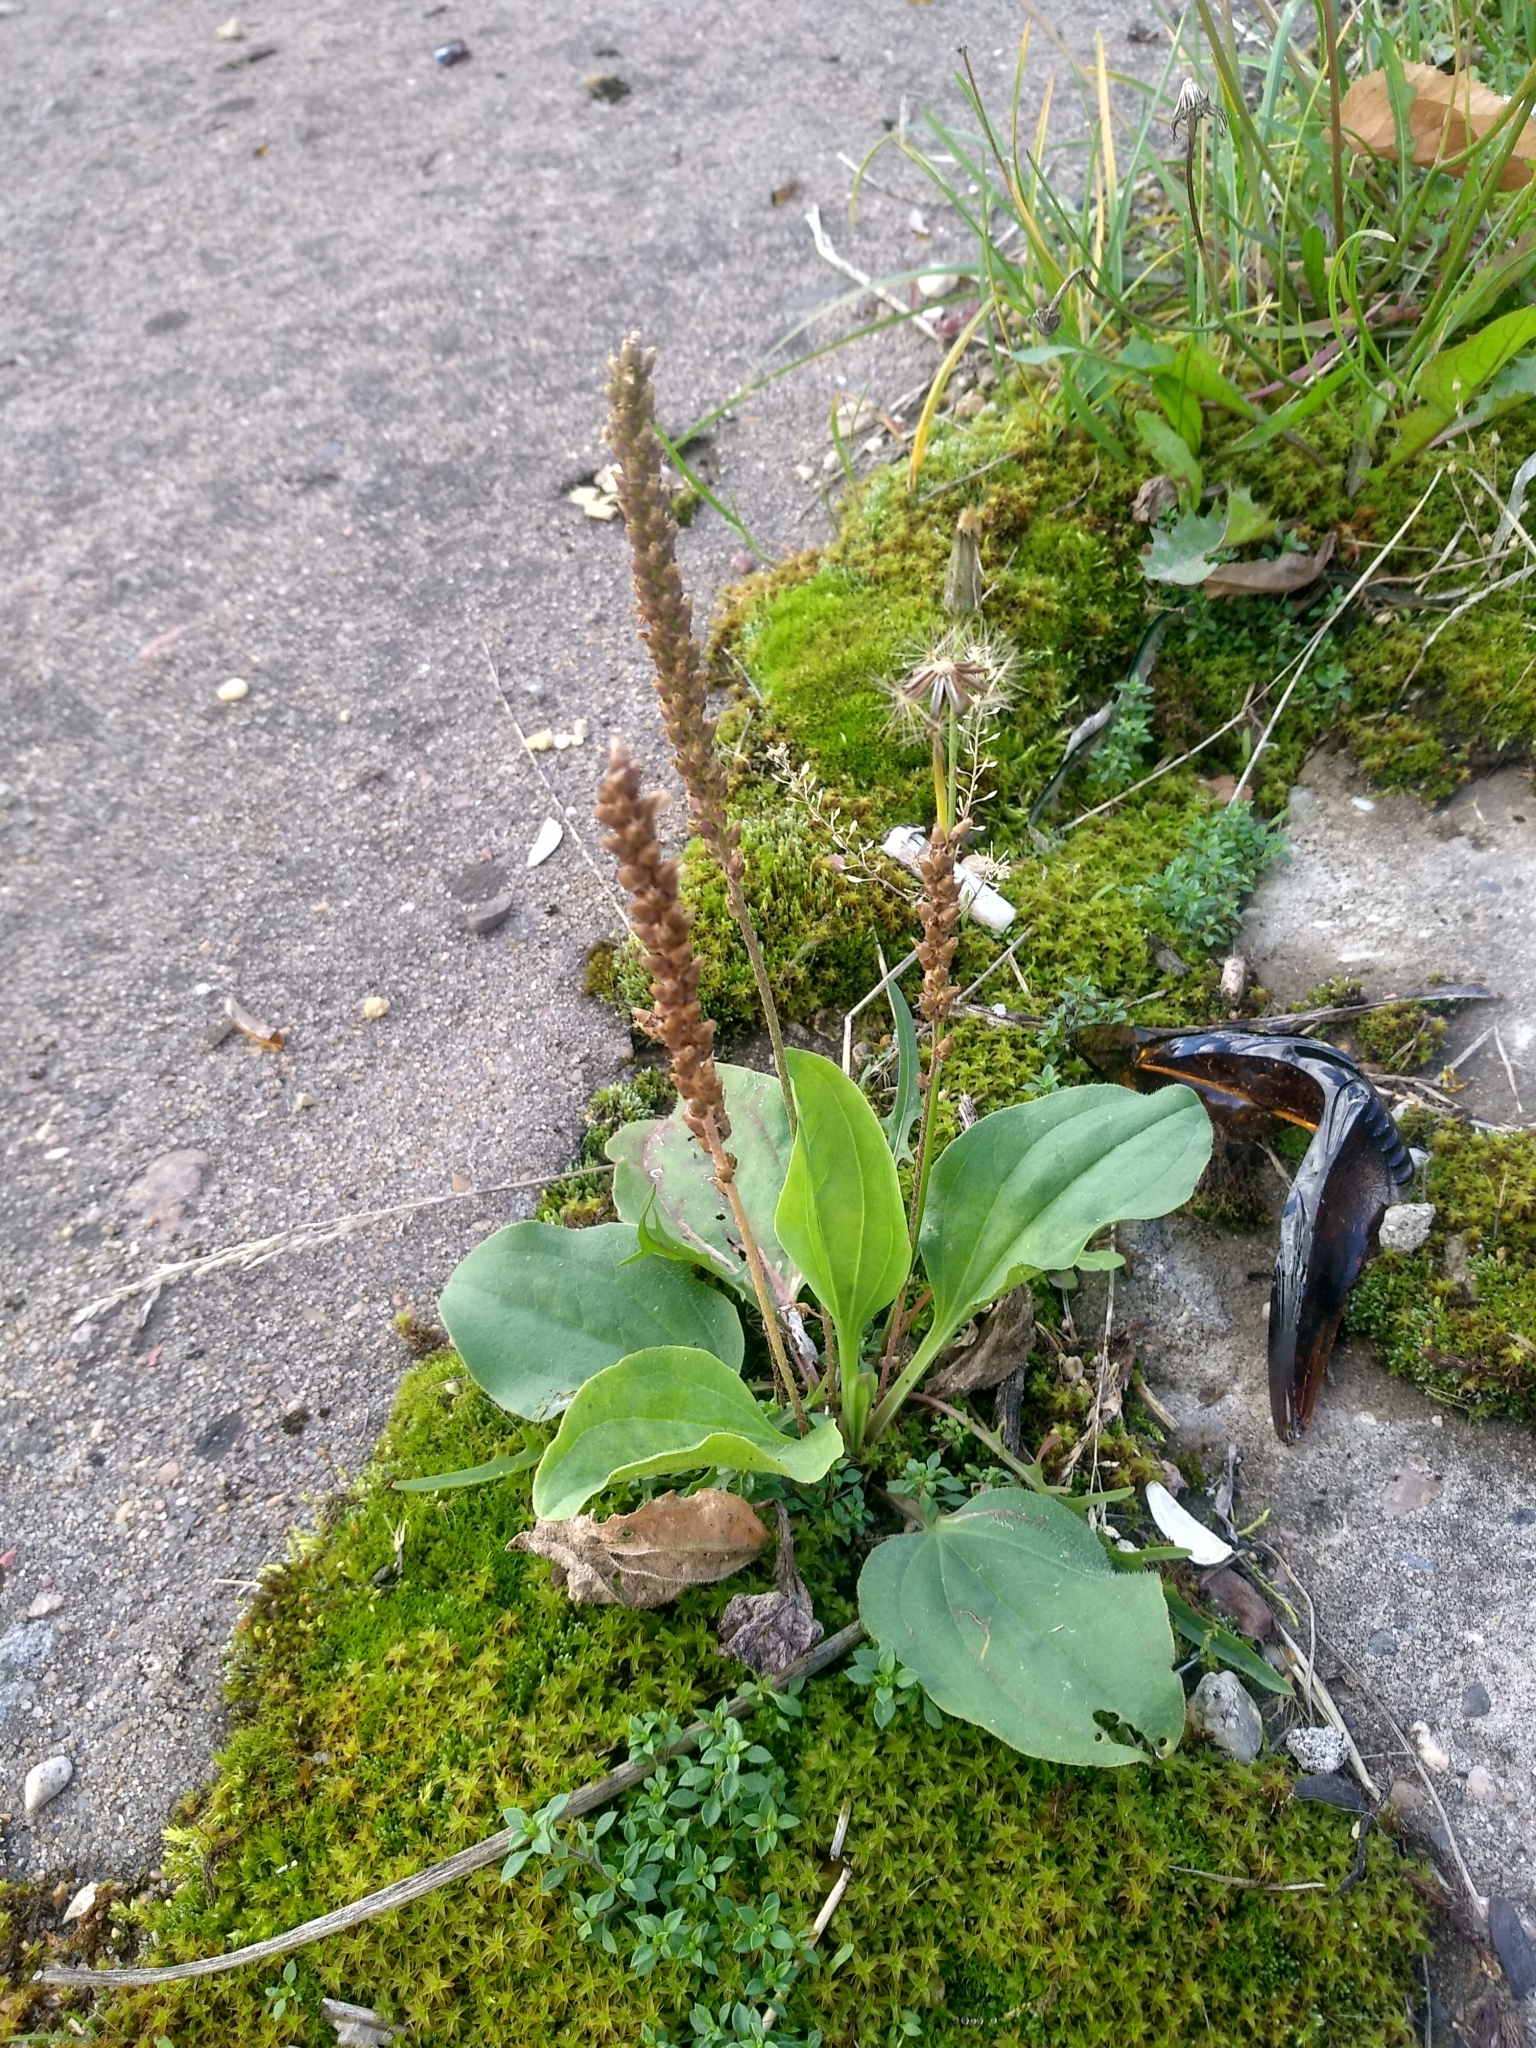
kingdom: Plantae
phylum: Tracheophyta
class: Magnoliopsida
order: Lamiales
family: Plantaginaceae
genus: Plantago
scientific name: Plantago major
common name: Common plantain
